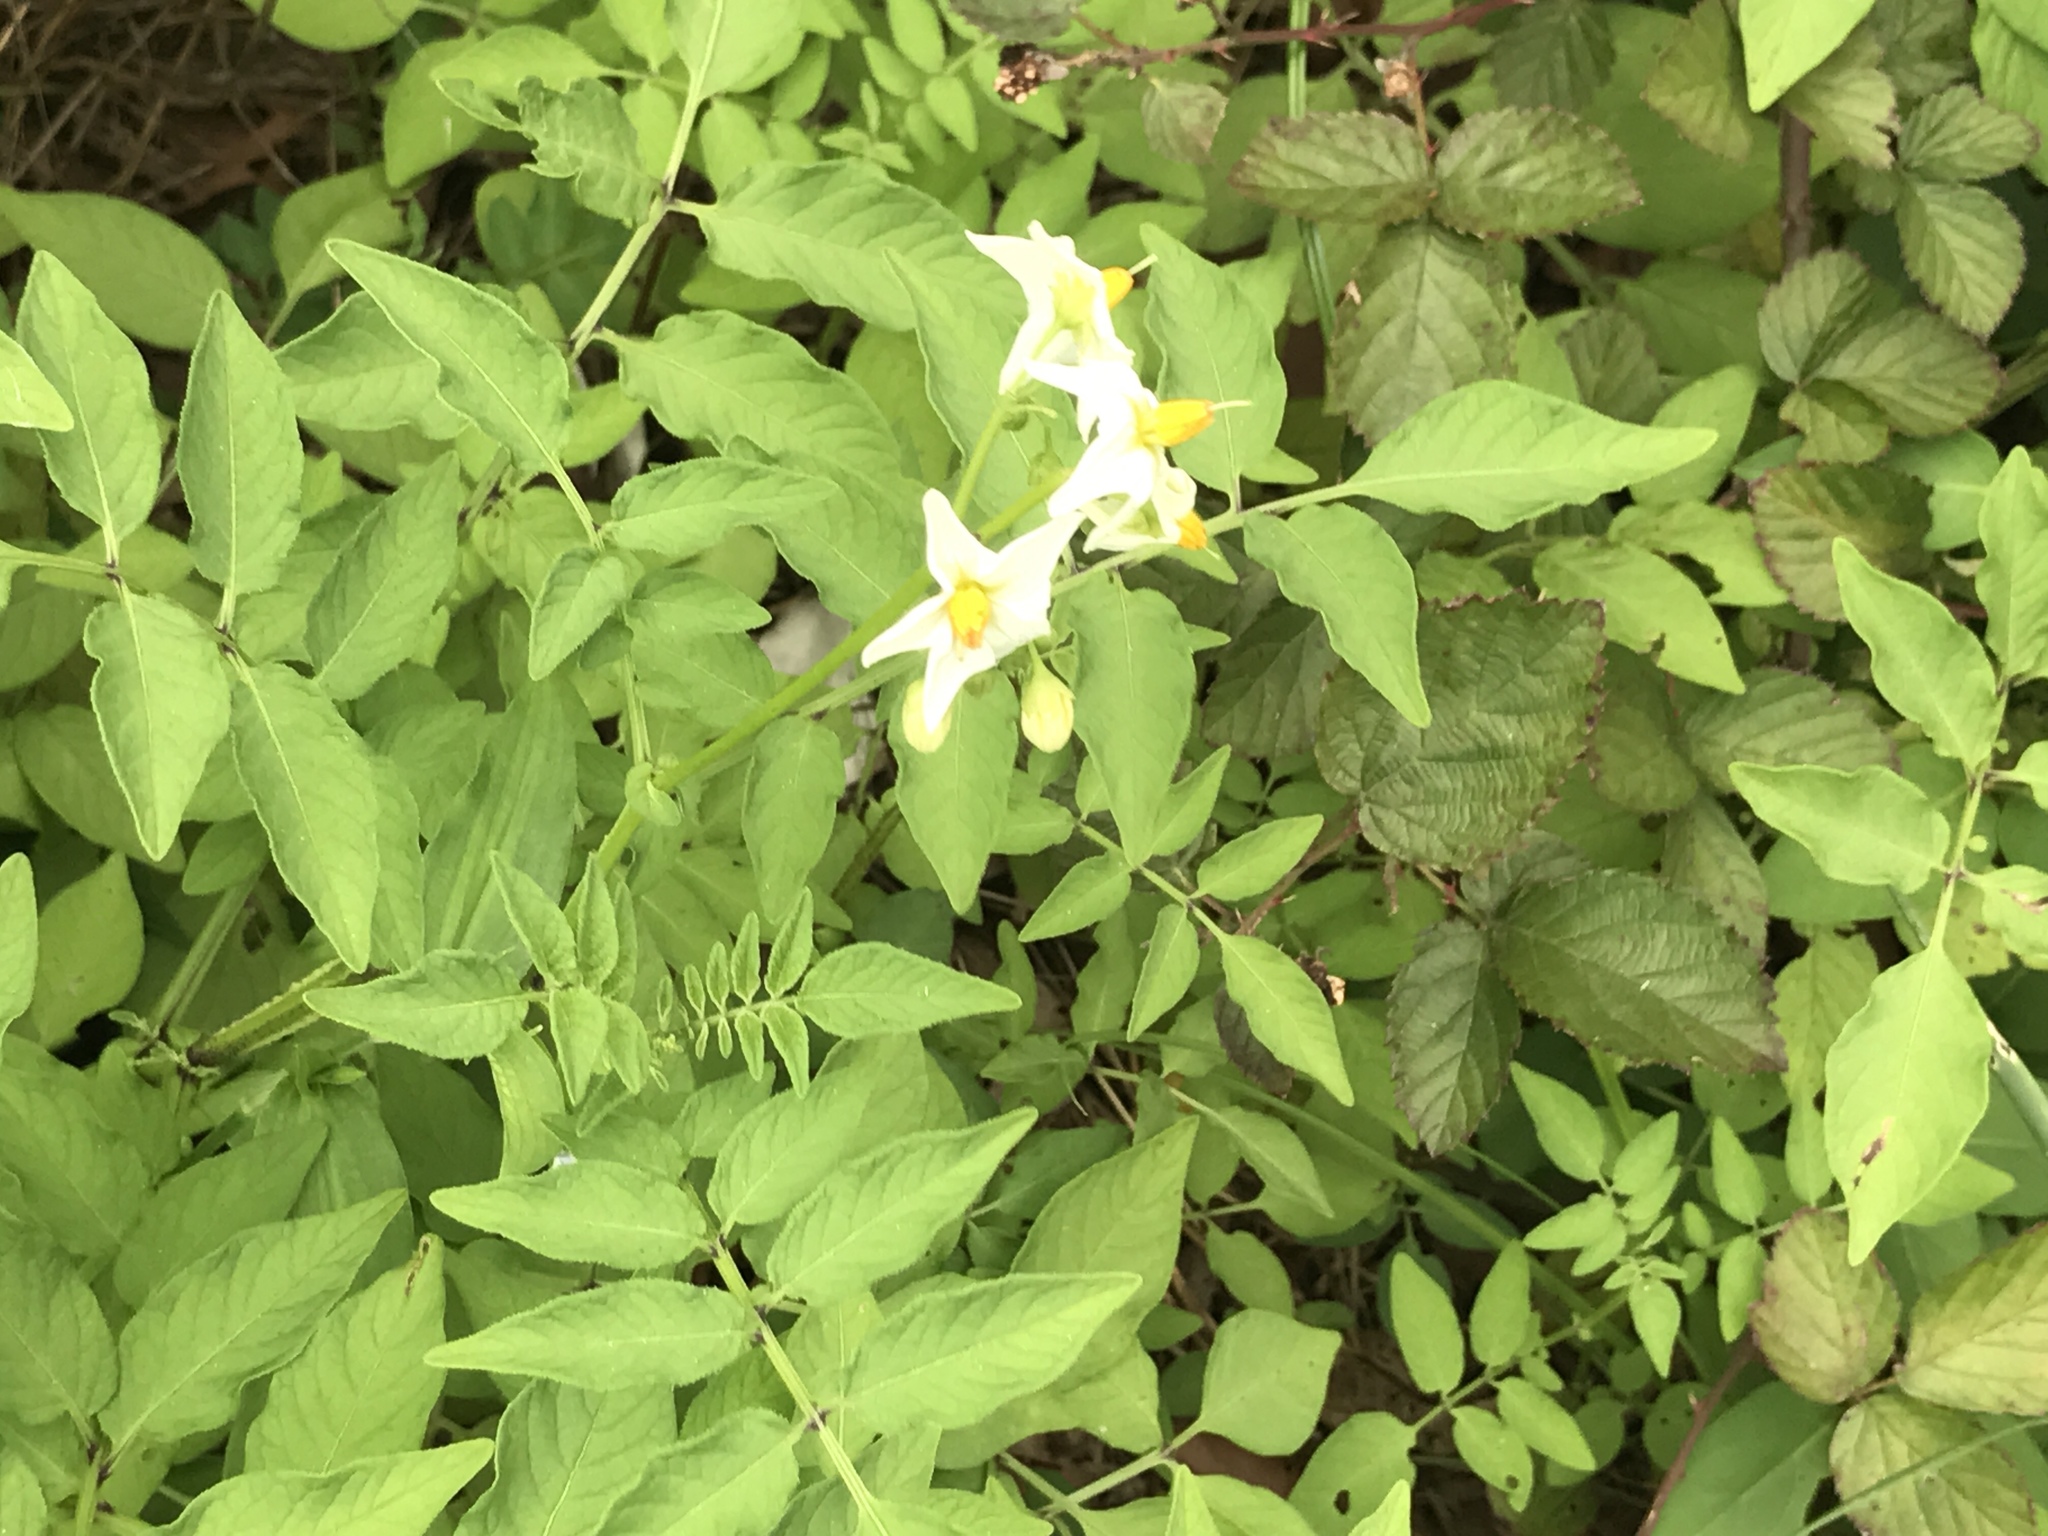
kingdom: Plantae
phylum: Tracheophyta
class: Magnoliopsida
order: Solanales
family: Solanaceae
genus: Solanum
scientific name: Solanum chacoense
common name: Chaco potato
